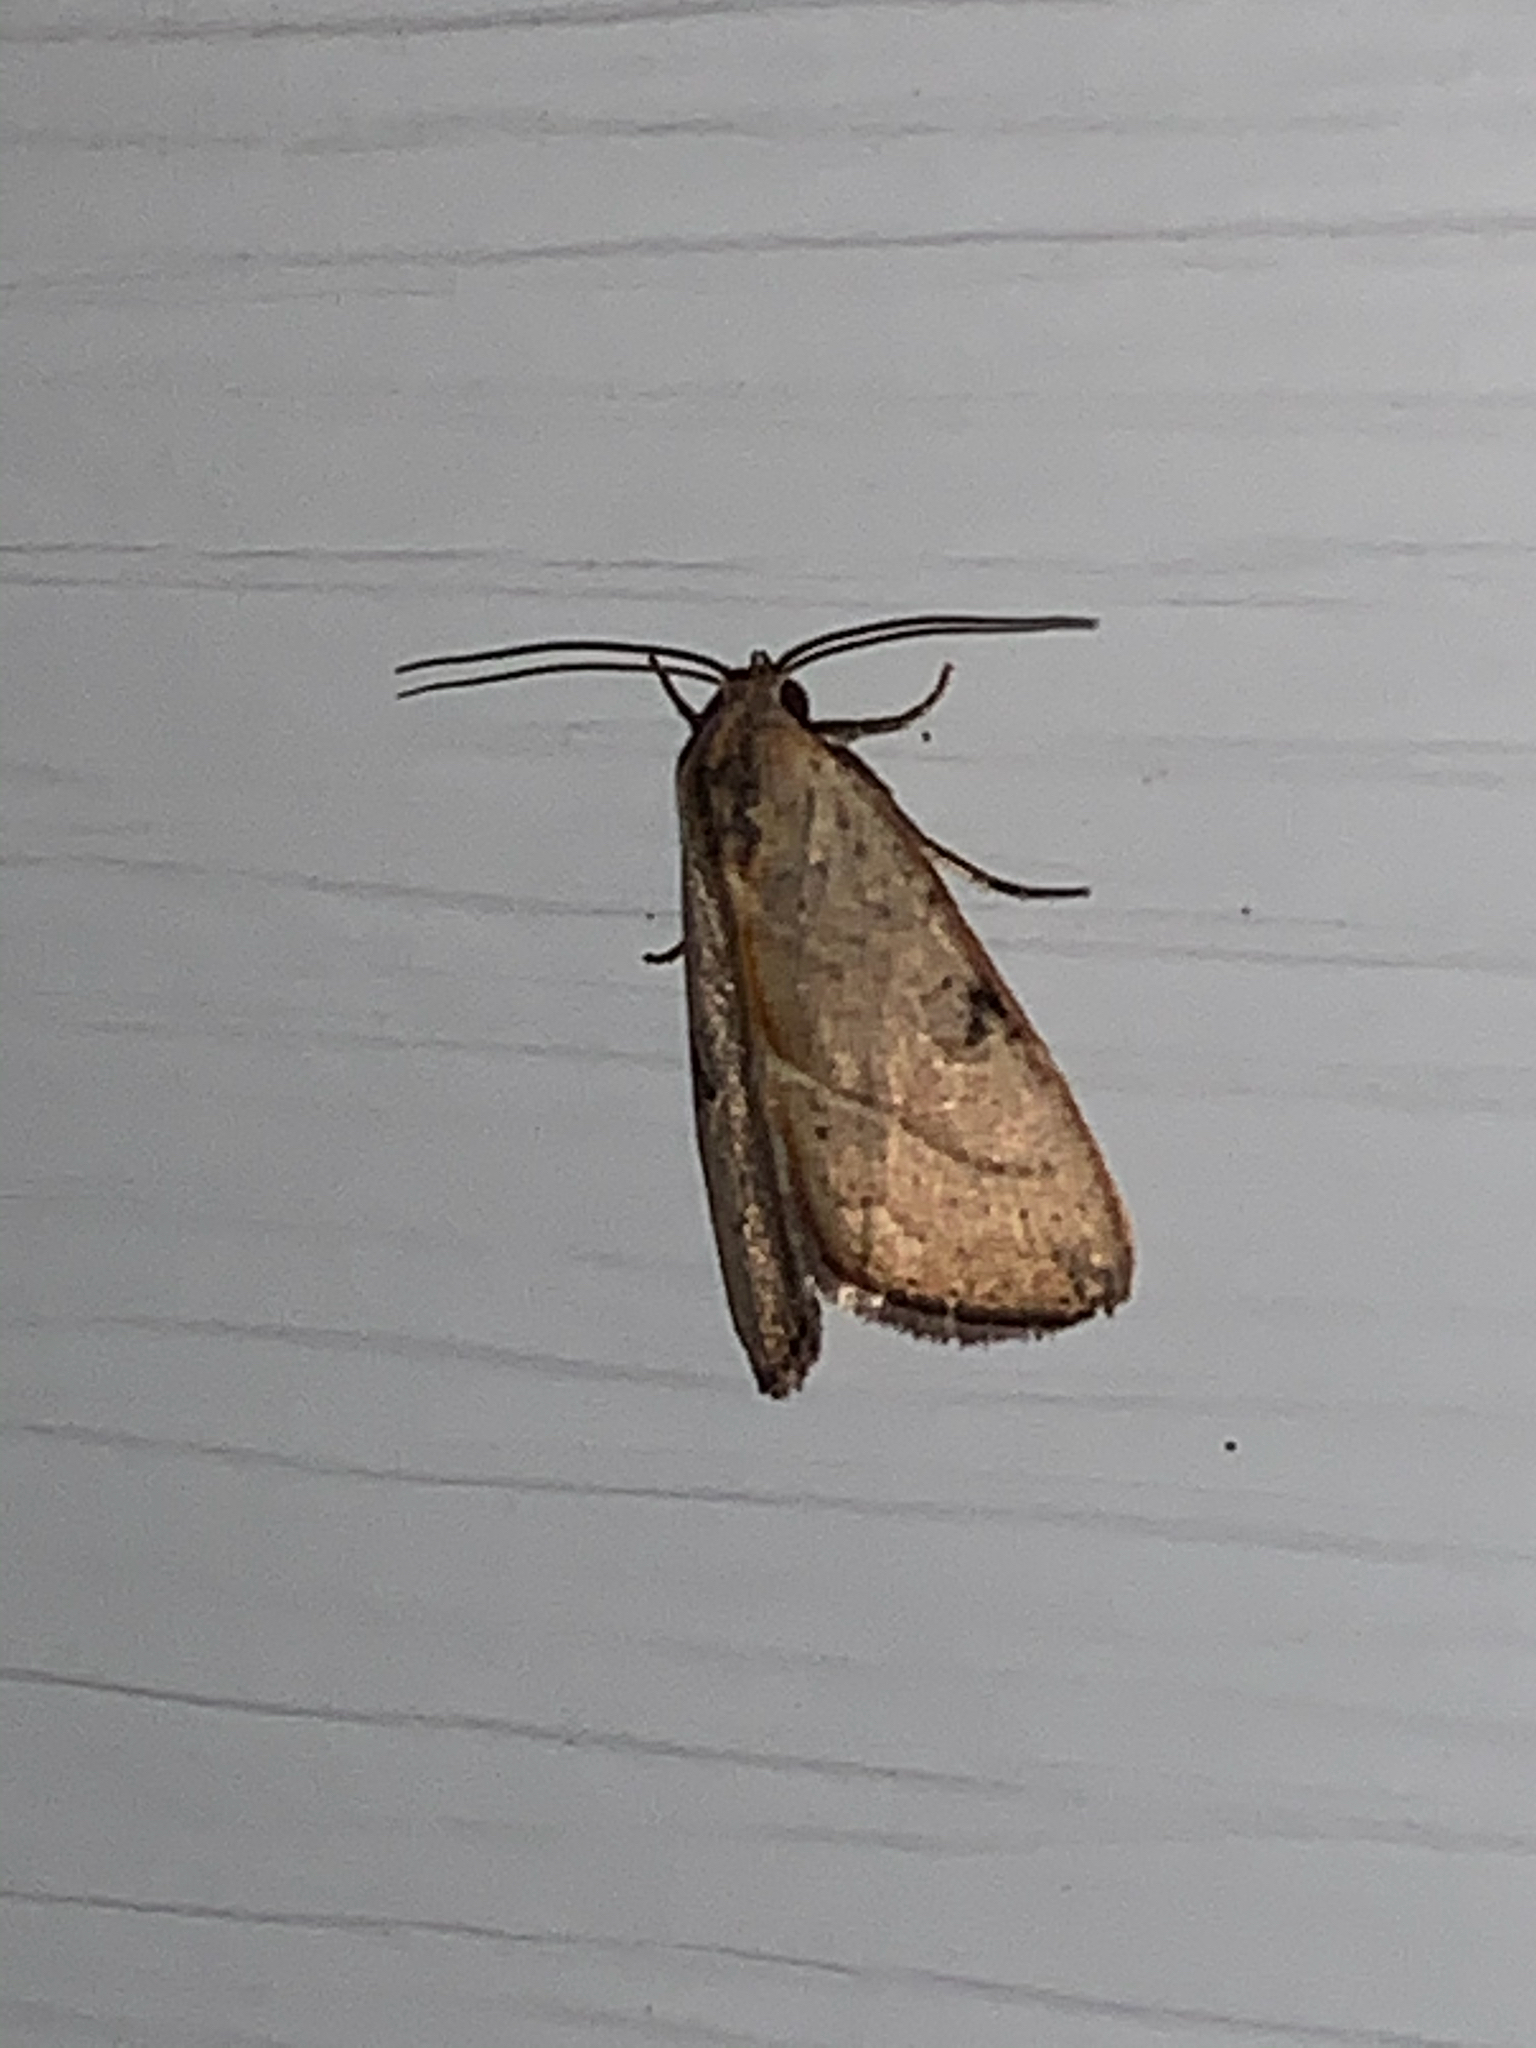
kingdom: Animalia
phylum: Arthropoda
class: Insecta
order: Lepidoptera
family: Noctuidae
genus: Galgula
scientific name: Galgula partita
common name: Wedgeling
